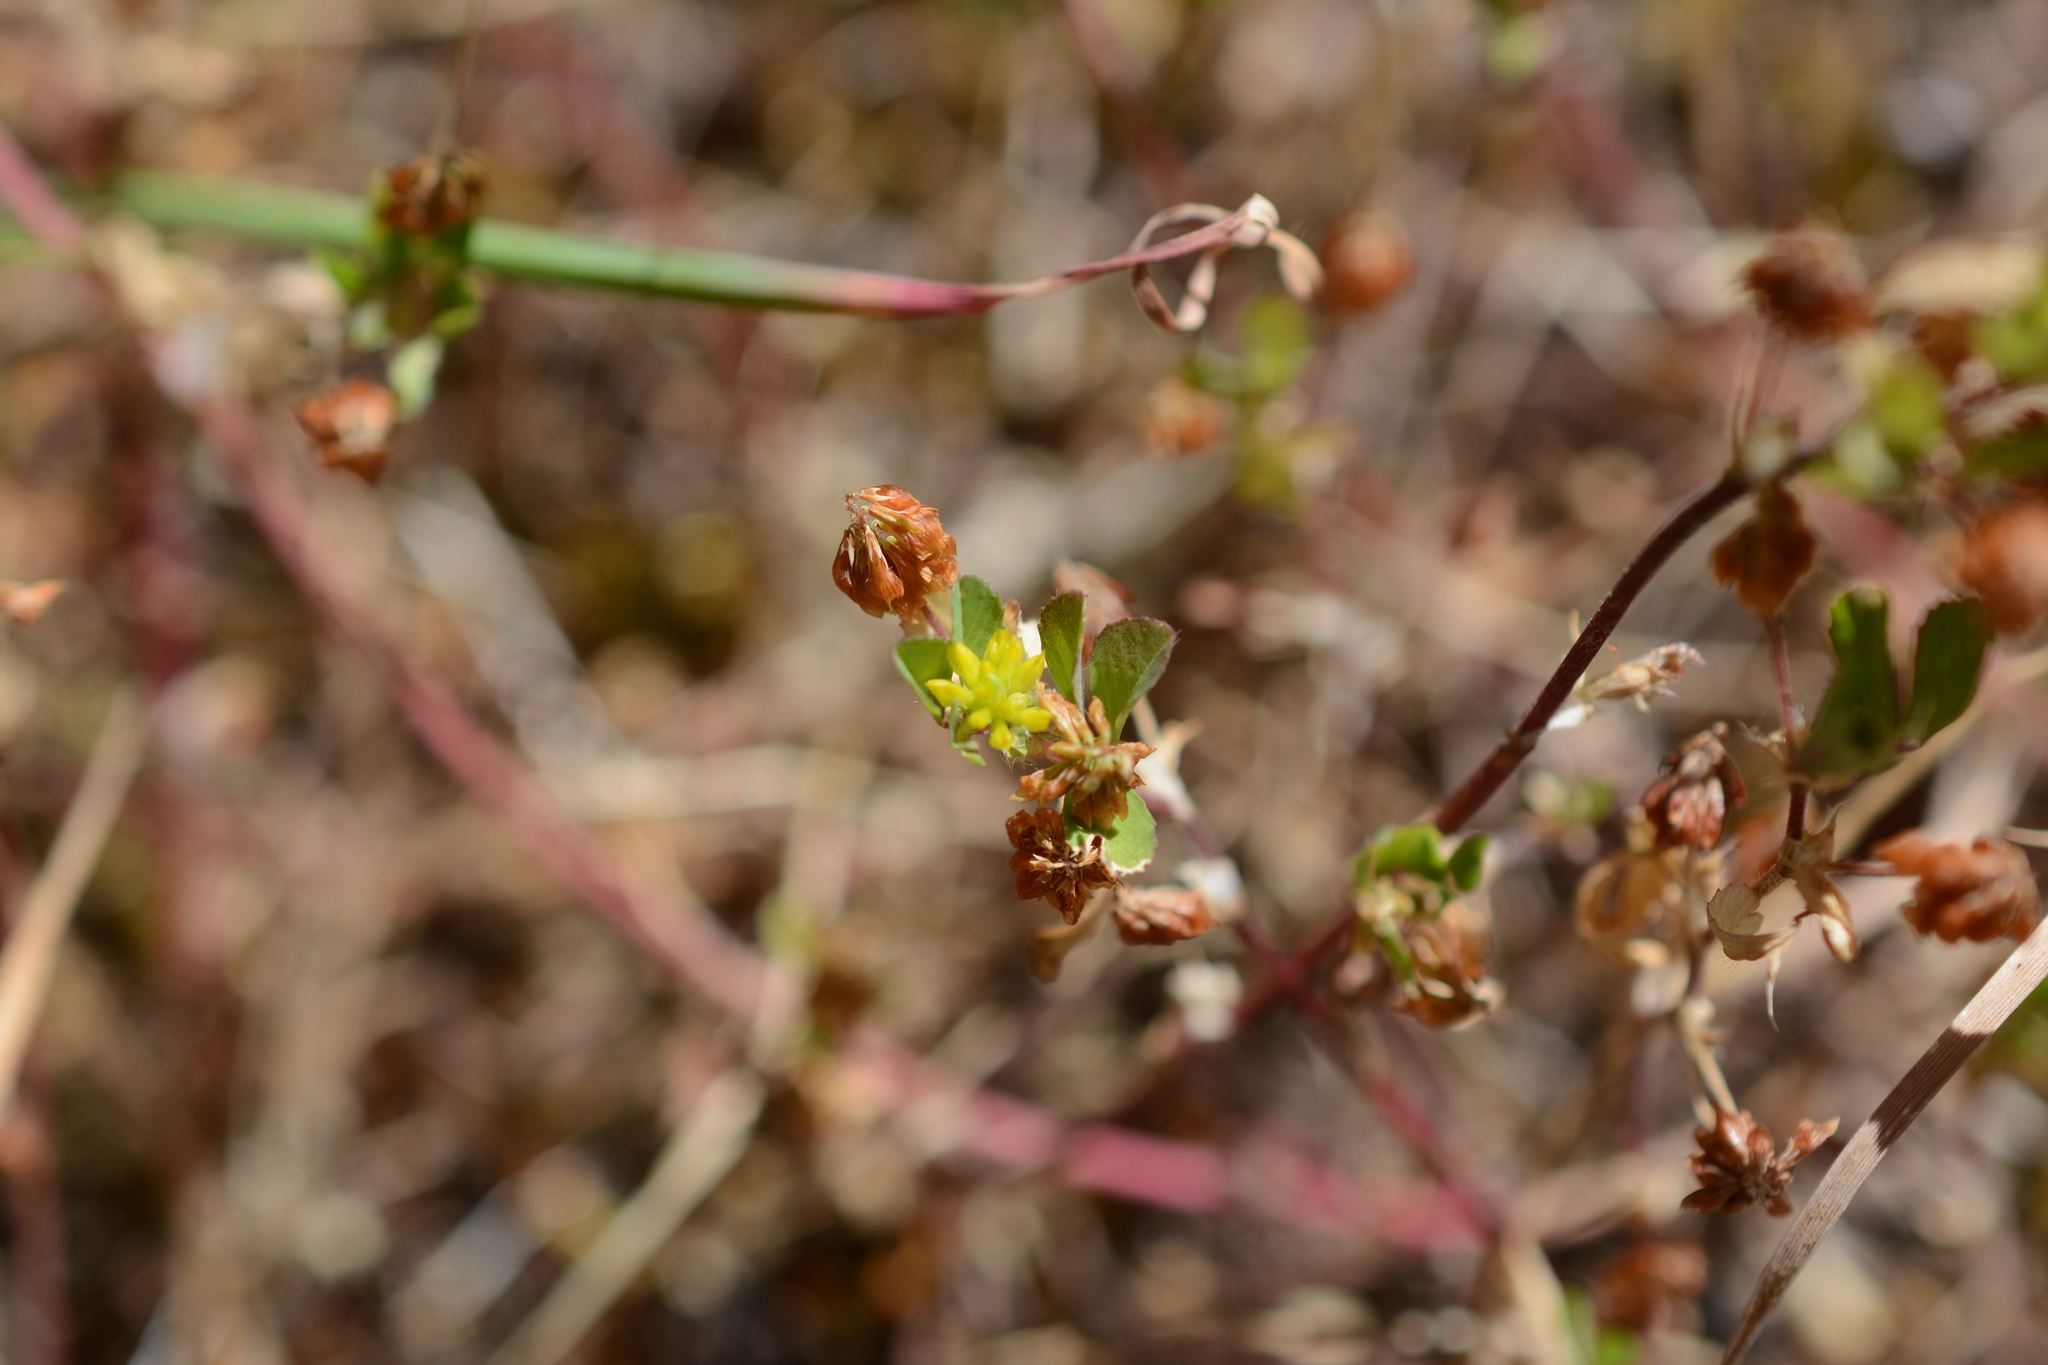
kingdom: Plantae
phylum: Tracheophyta
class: Magnoliopsida
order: Fabales
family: Fabaceae
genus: Trifolium
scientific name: Trifolium dubium
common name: Suckling clover
